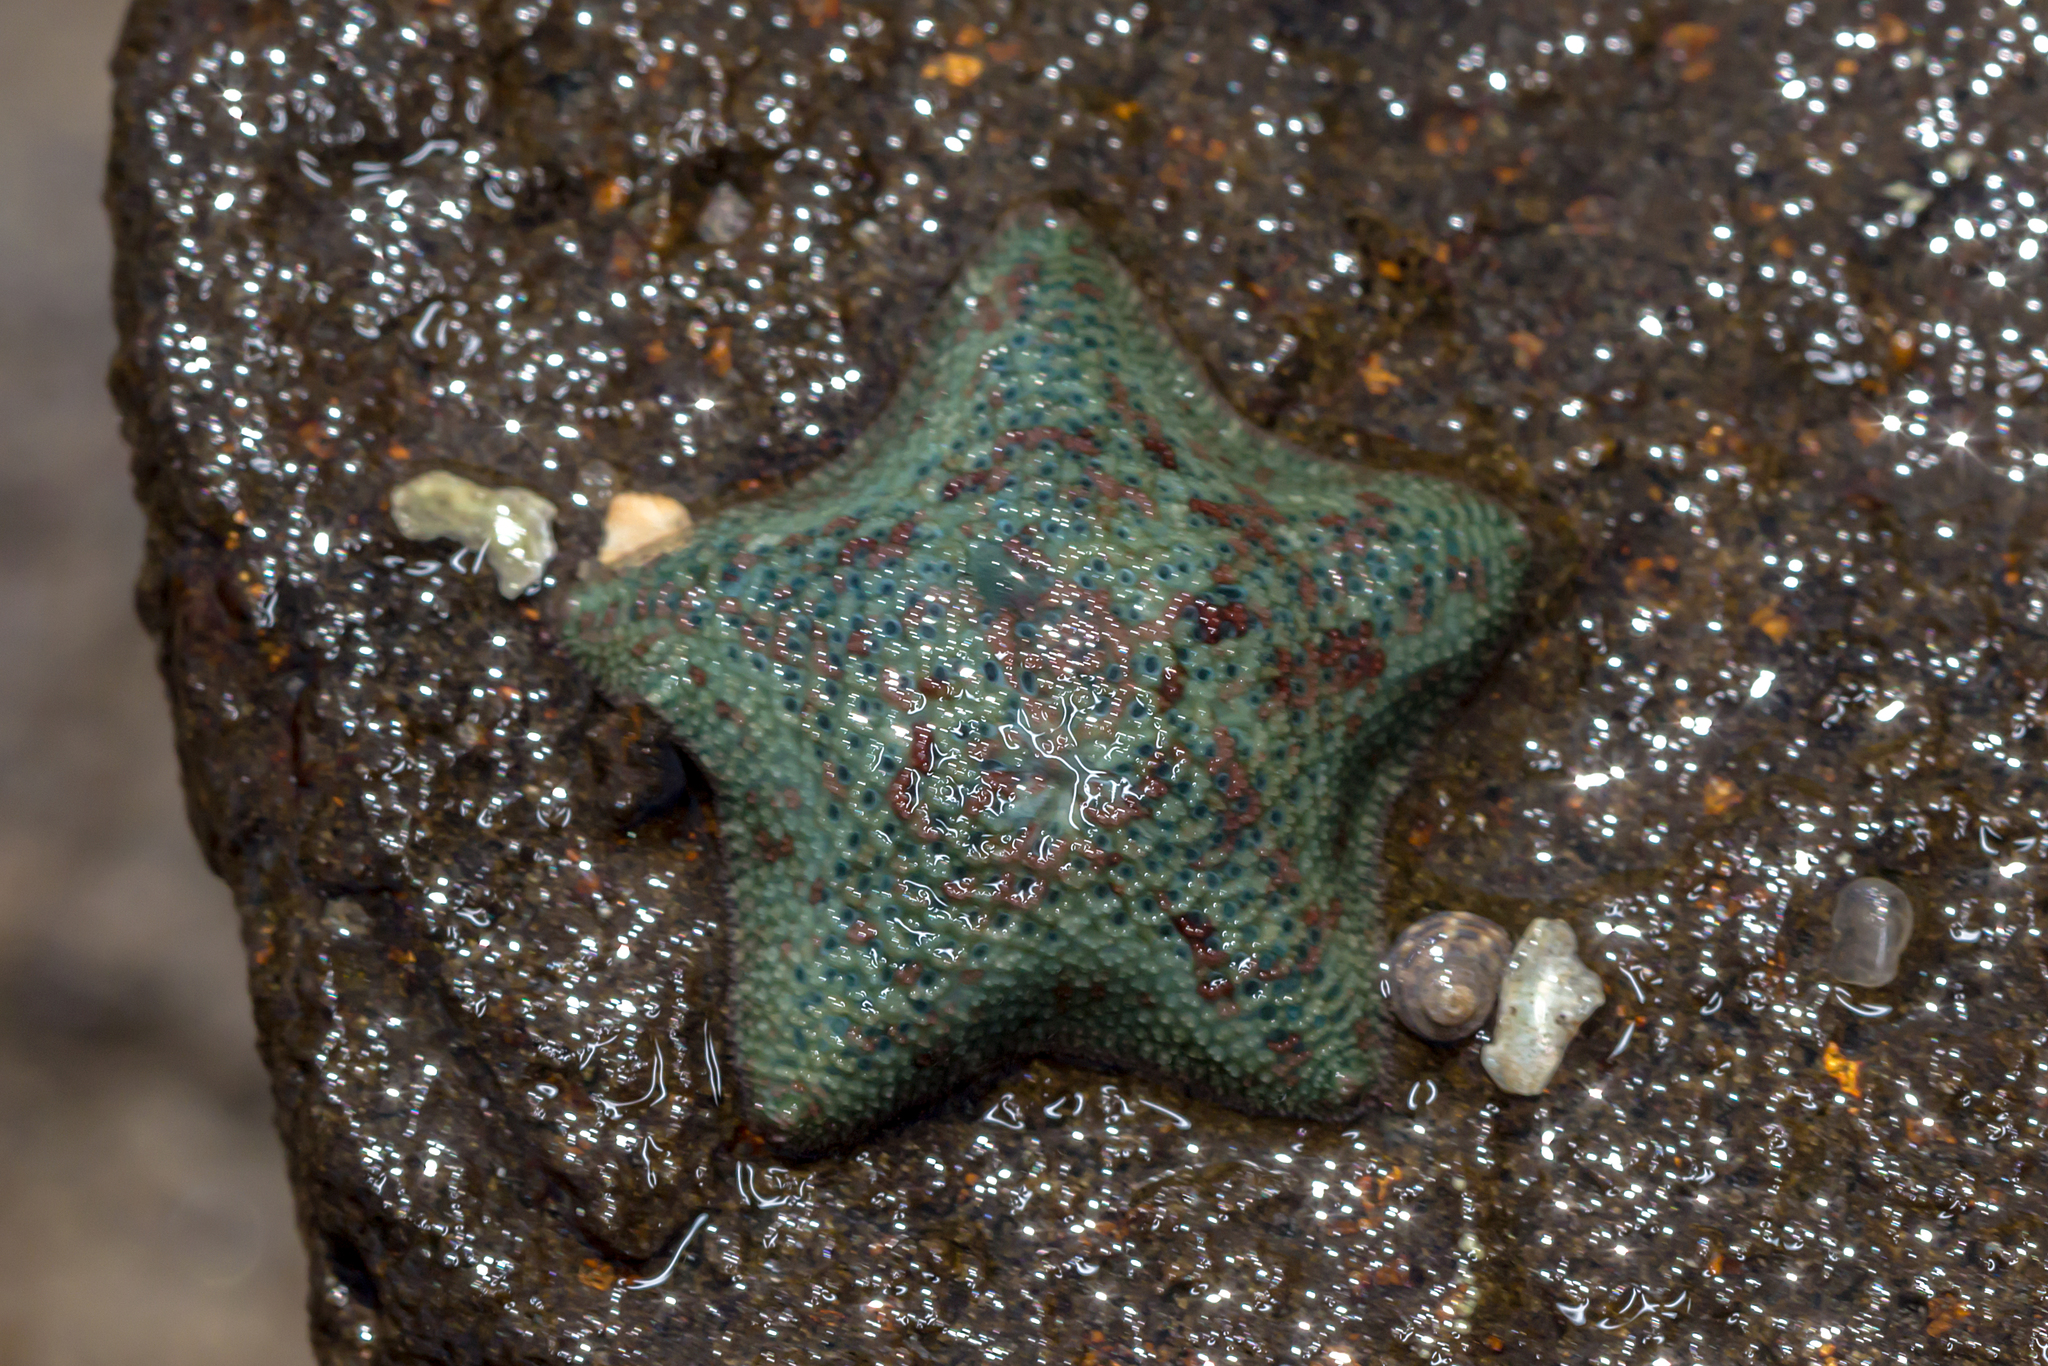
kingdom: Animalia
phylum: Echinodermata
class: Asteroidea
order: Valvatida
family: Asterinidae
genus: Parvulastra
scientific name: Parvulastra exigua
